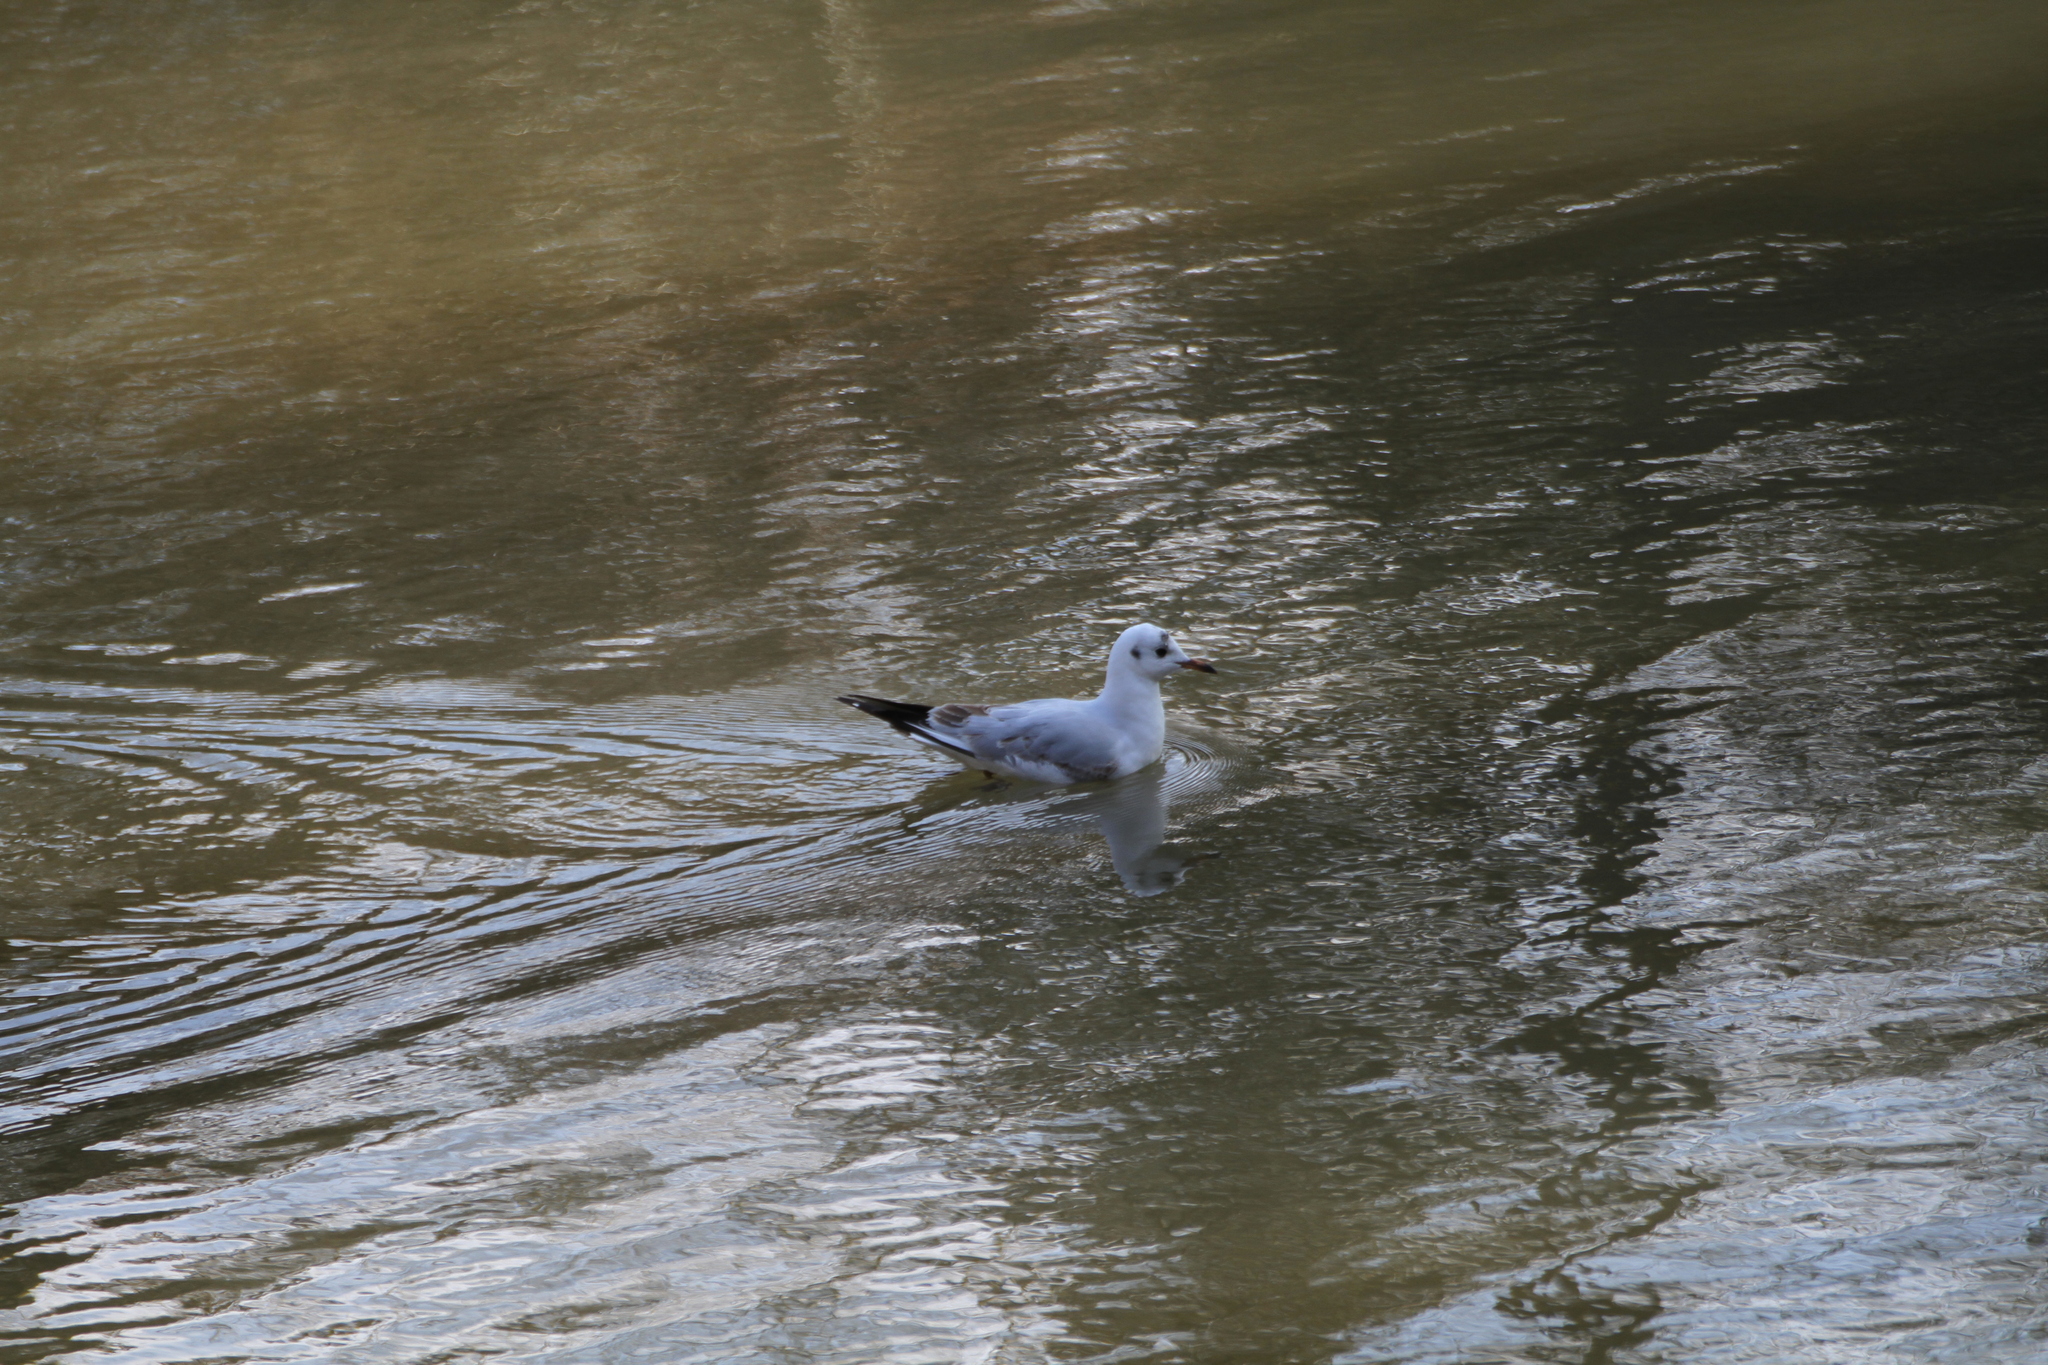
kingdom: Animalia
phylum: Chordata
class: Aves
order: Charadriiformes
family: Laridae
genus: Chroicocephalus
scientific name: Chroicocephalus ridibundus
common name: Black-headed gull
